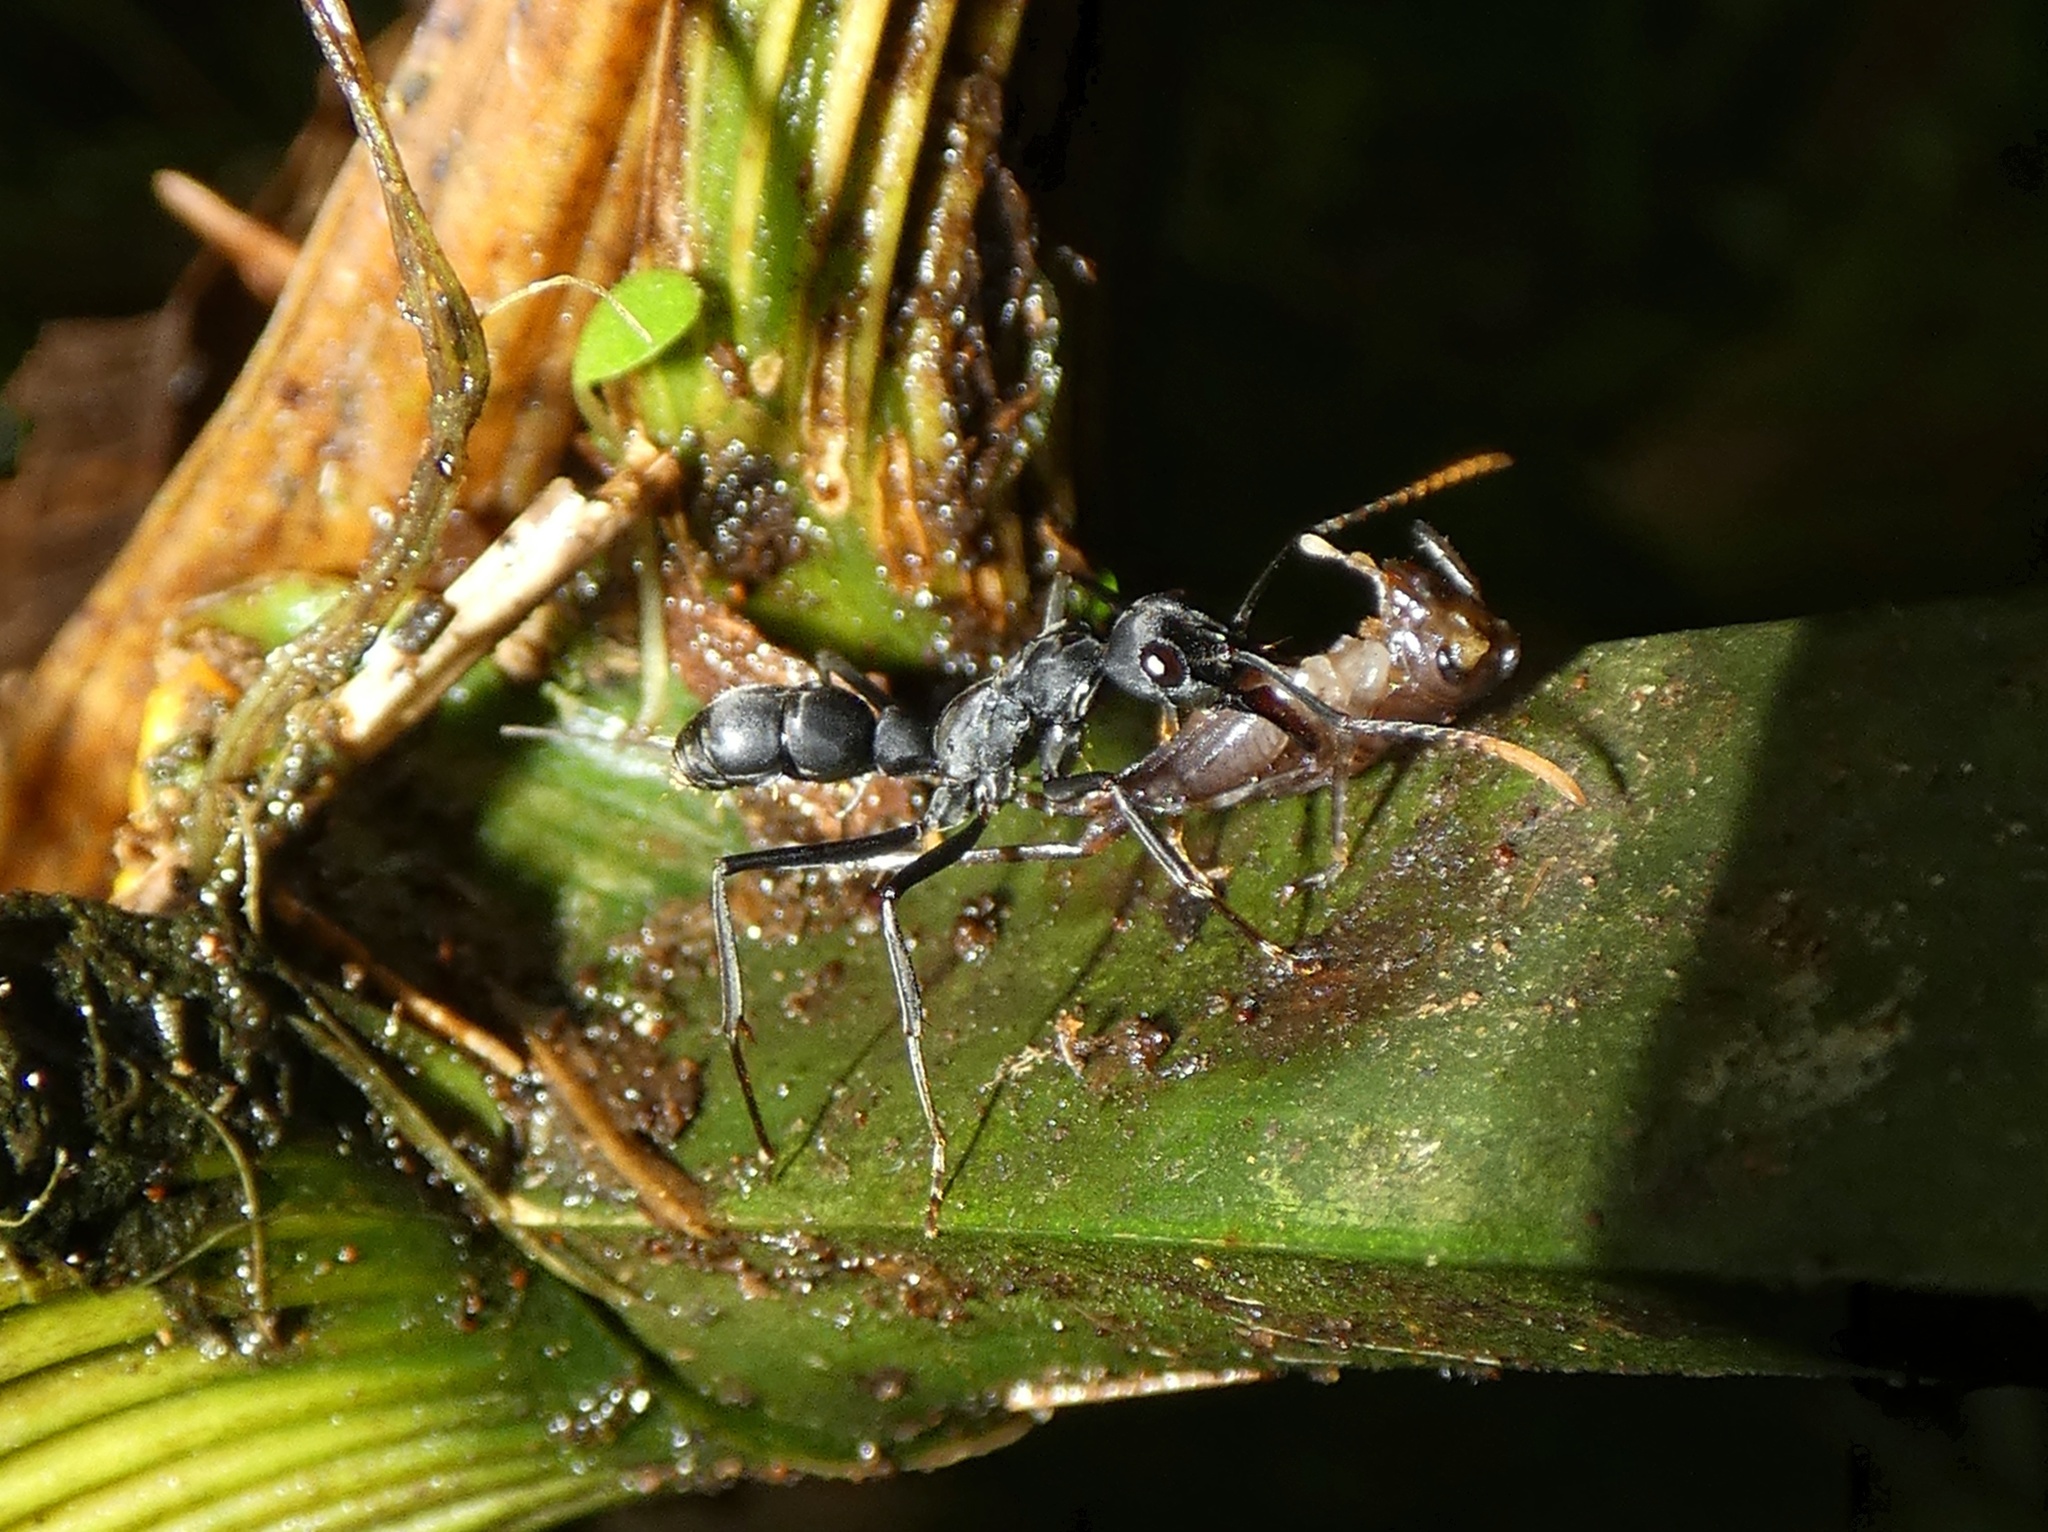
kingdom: Animalia
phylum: Arthropoda
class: Insecta
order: Hymenoptera
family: Formicidae
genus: Pachycondyla
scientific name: Pachycondyla apicalis
